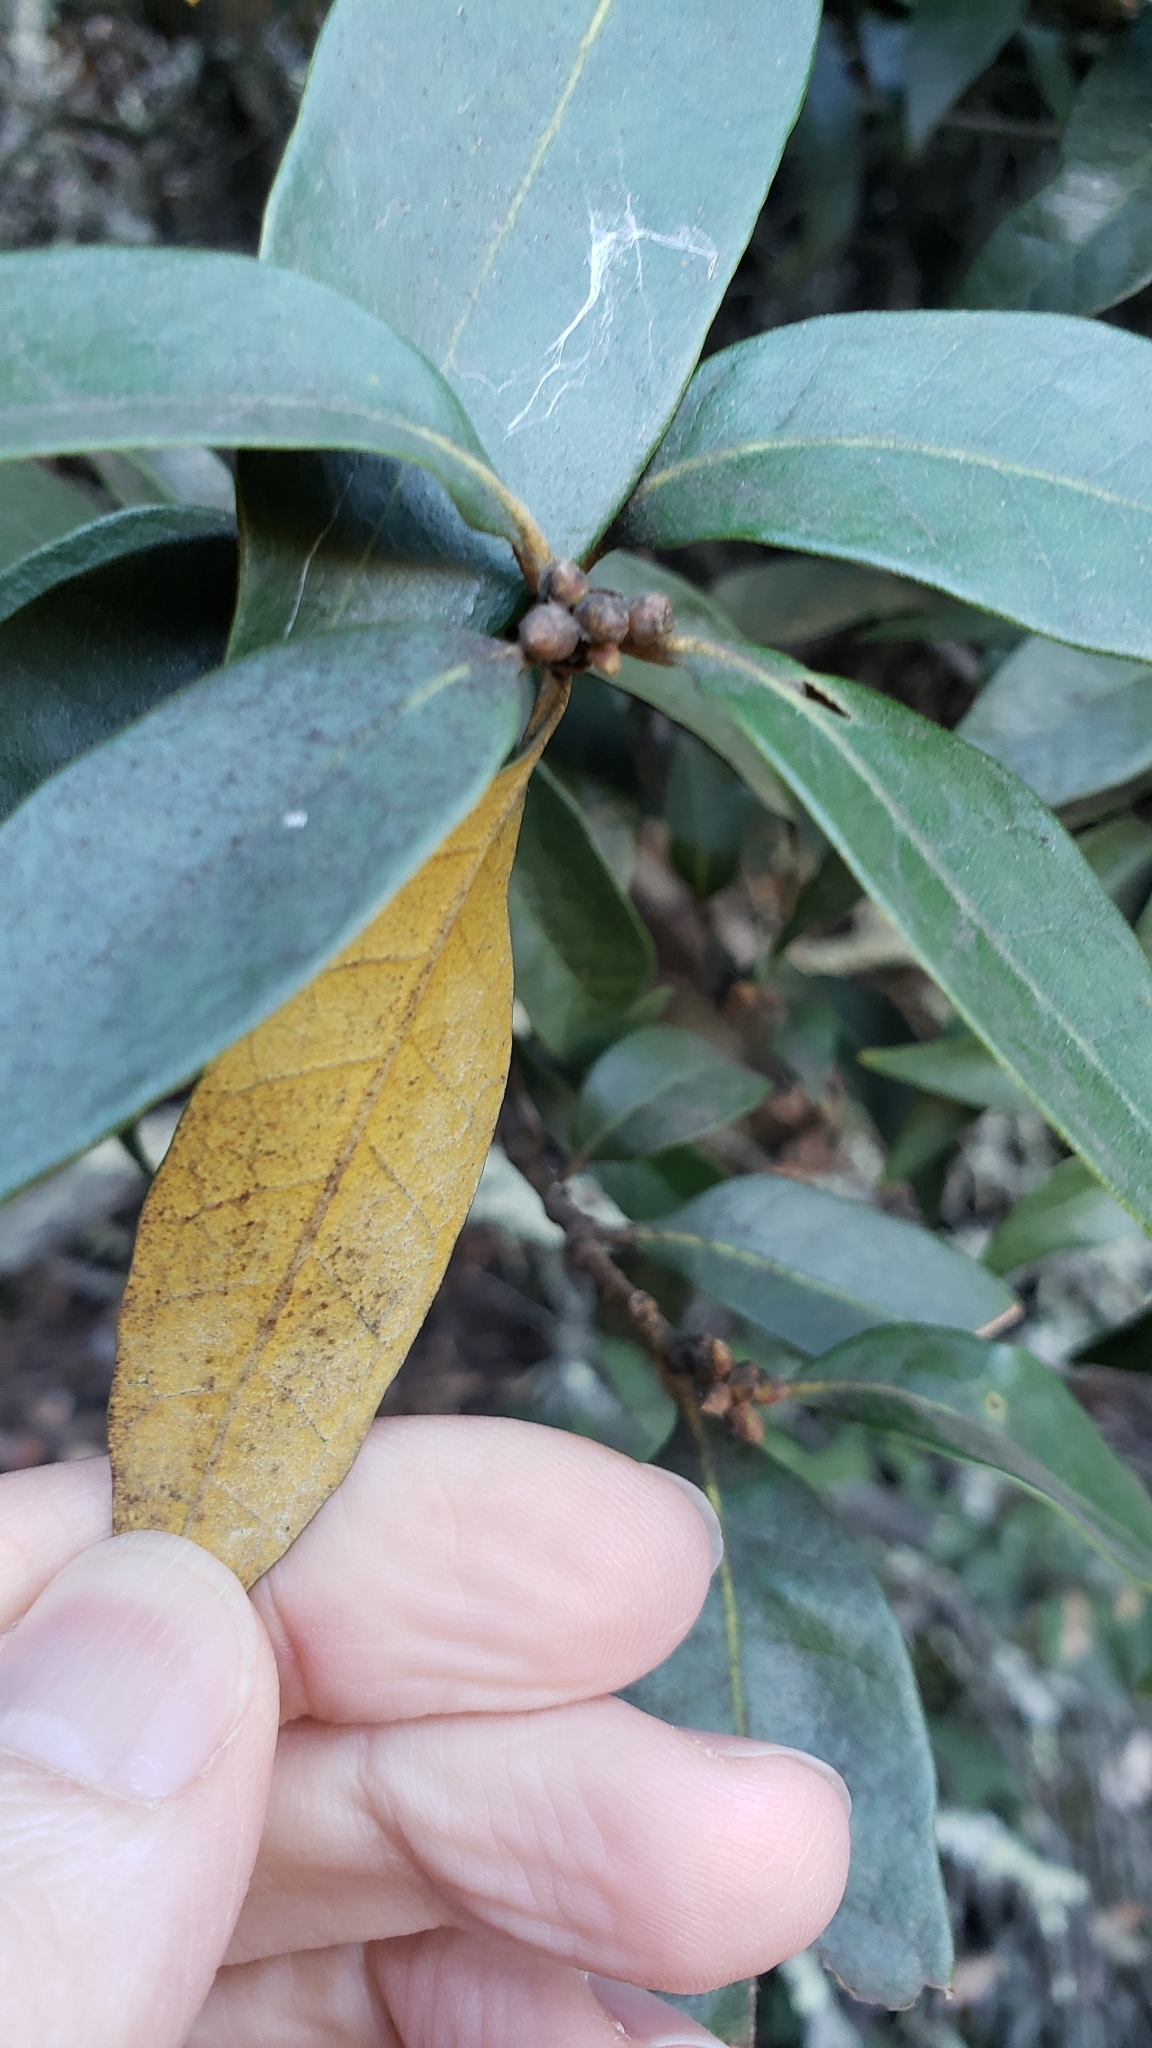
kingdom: Plantae
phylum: Tracheophyta
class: Magnoliopsida
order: Fagales
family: Fagaceae
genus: Chrysolepis
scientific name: Chrysolepis chrysophylla
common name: Giant chinquapin
